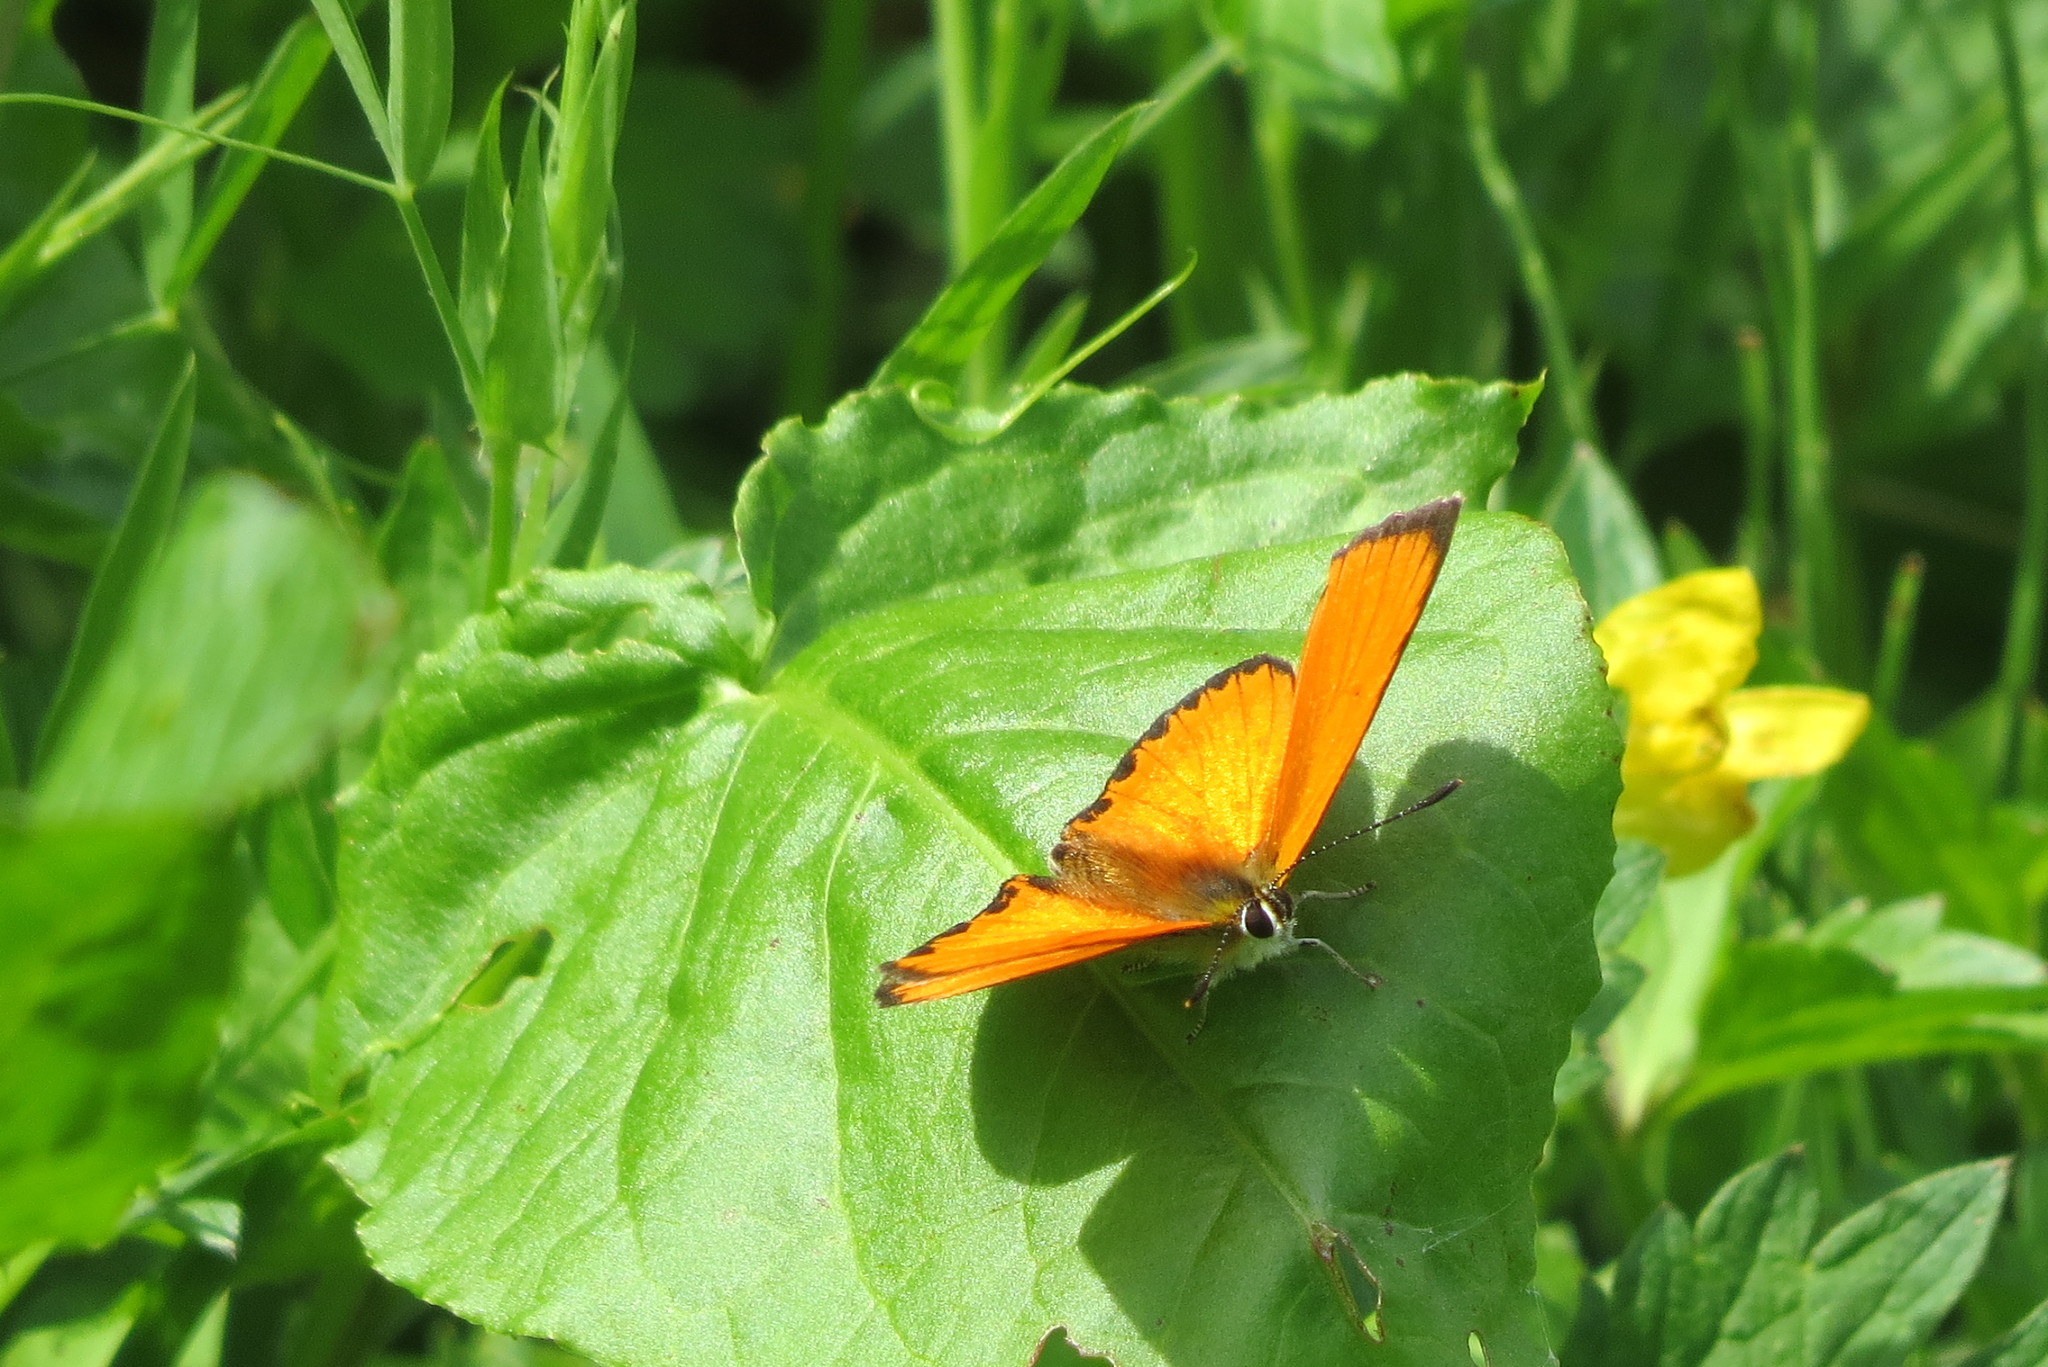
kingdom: Animalia
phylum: Arthropoda
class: Insecta
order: Lepidoptera
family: Lycaenidae
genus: Lycaena
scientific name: Lycaena virgaureae
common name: Scarce copper
